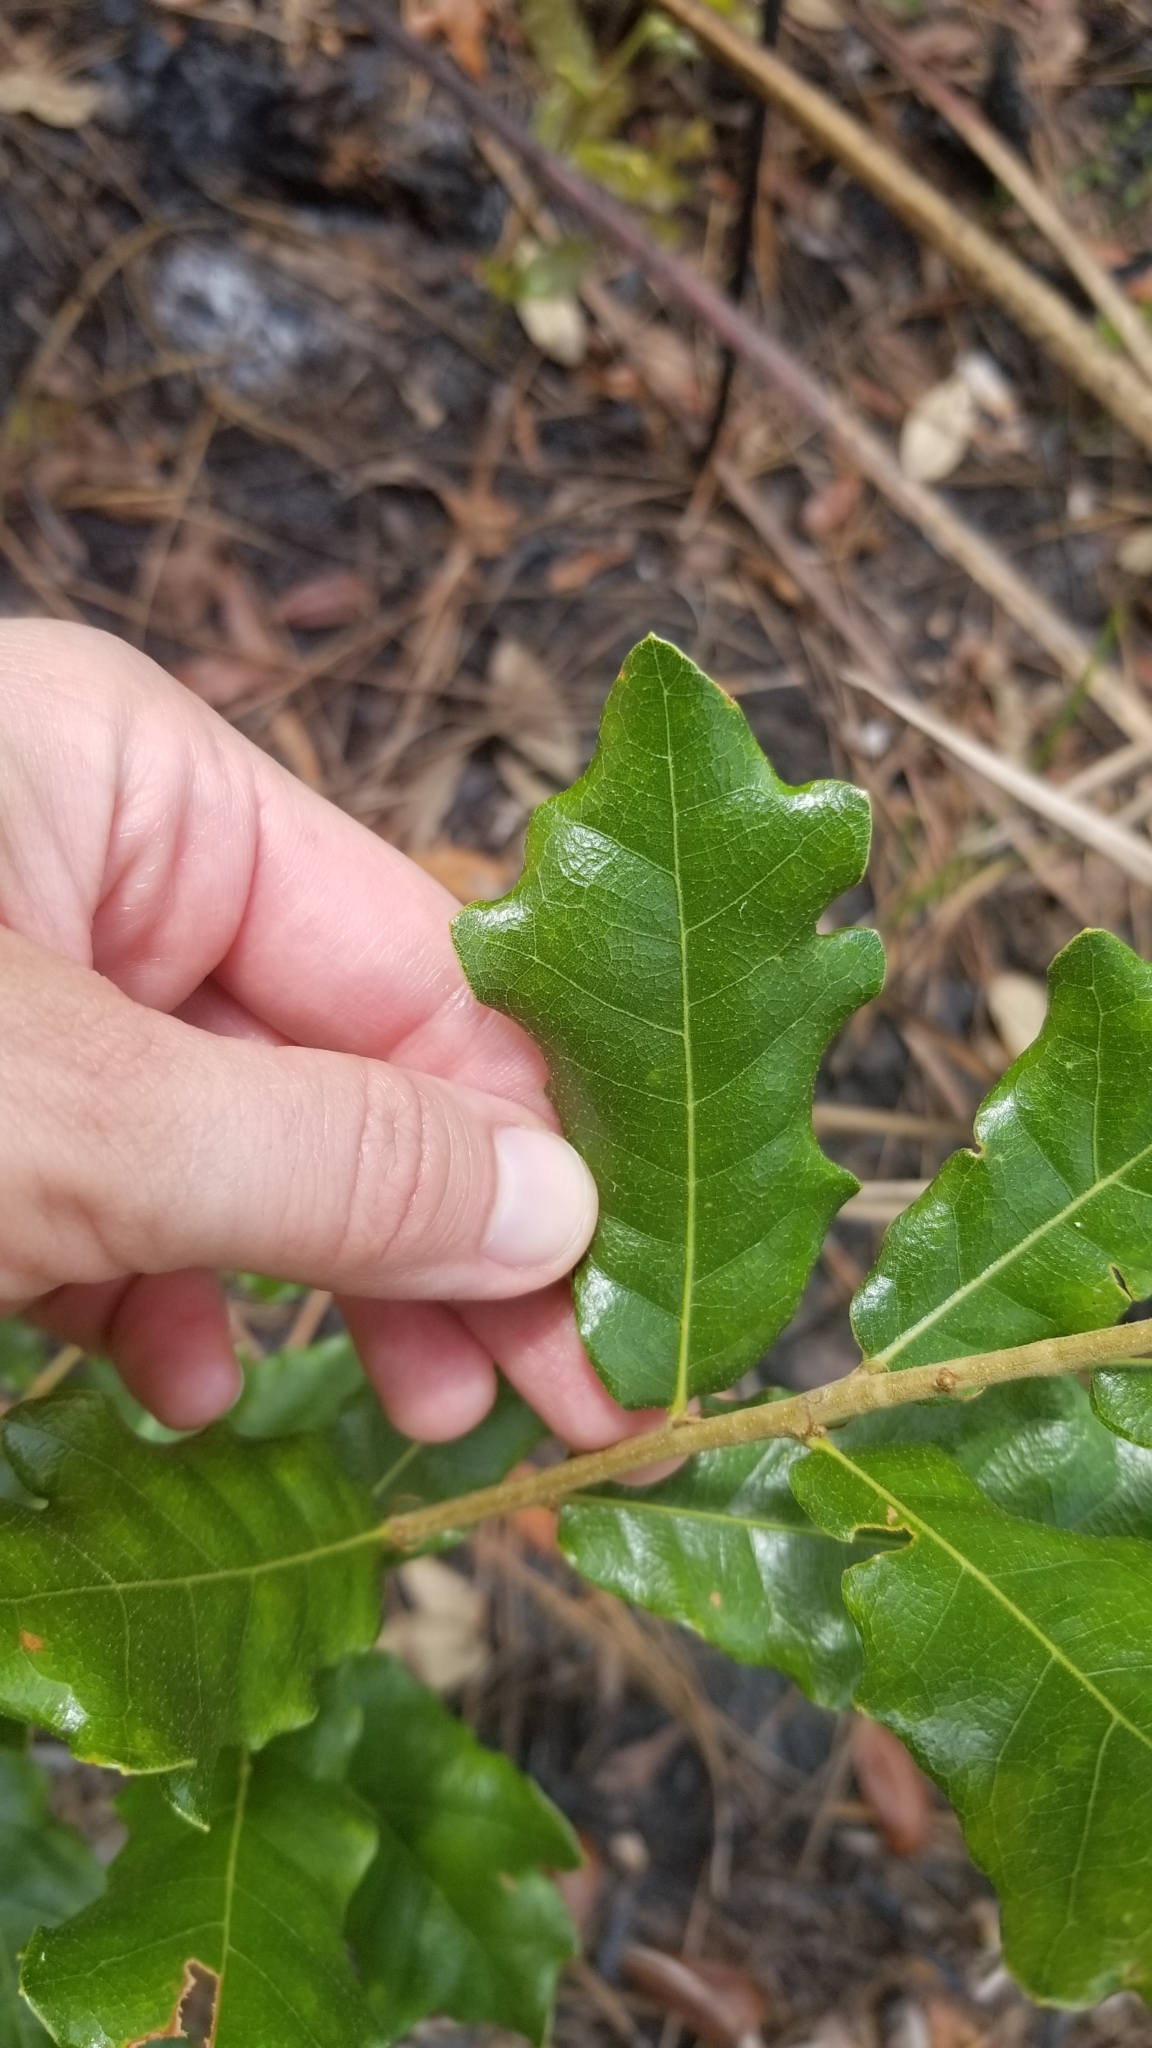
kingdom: Plantae
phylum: Tracheophyta
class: Magnoliopsida
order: Fagales
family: Fagaceae
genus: Quercus
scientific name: Quercus nigra
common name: Water oak
